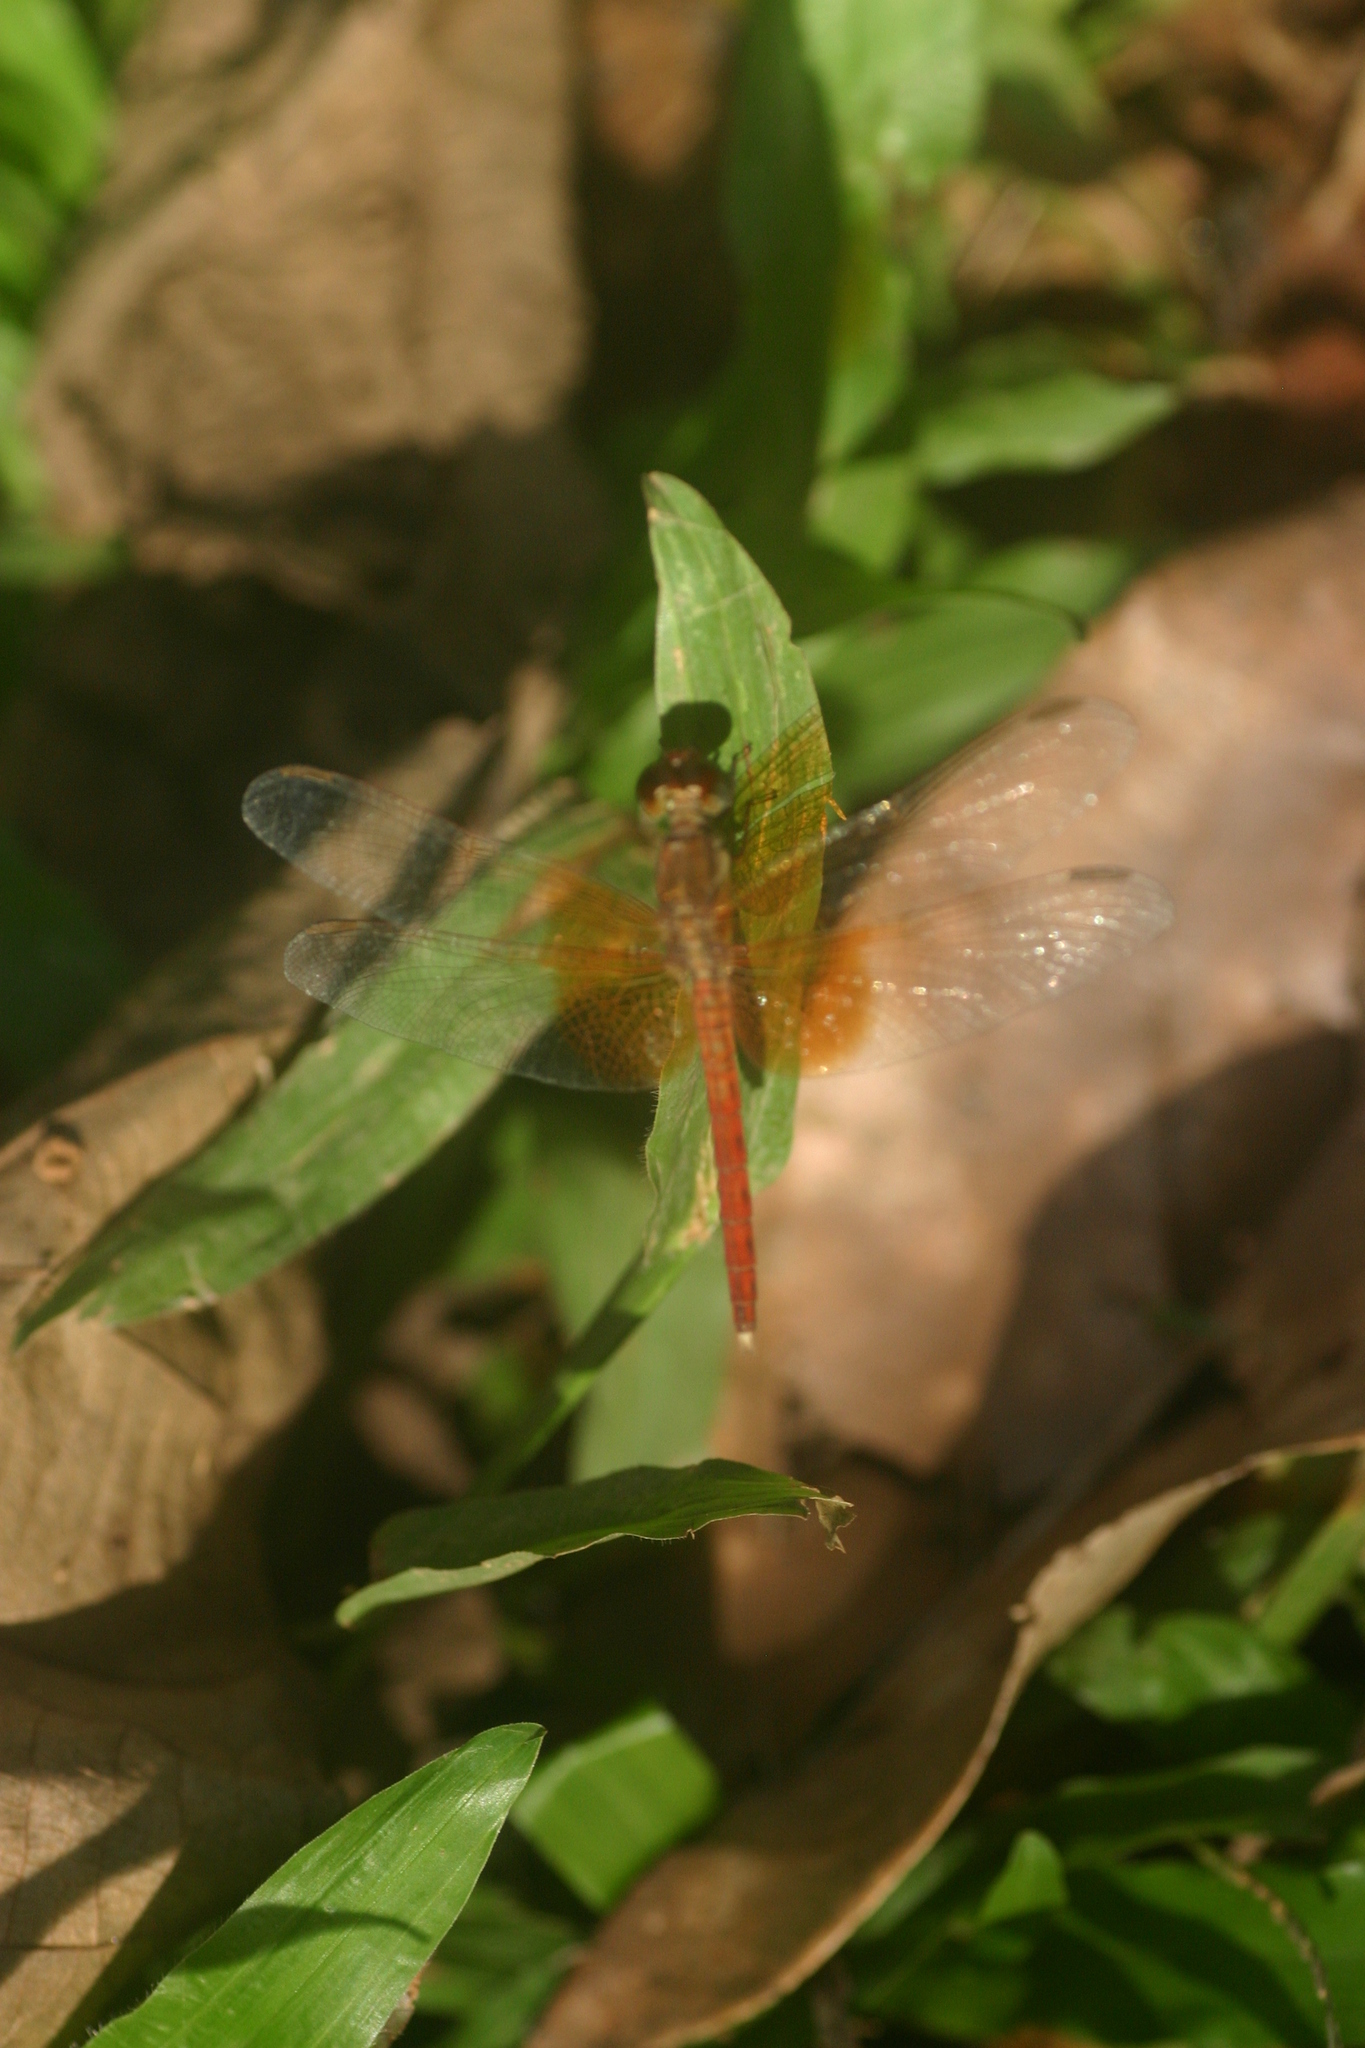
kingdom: Animalia
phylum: Arthropoda
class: Insecta
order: Odonata
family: Libellulidae
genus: Neurothemis
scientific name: Neurothemis intermedia
